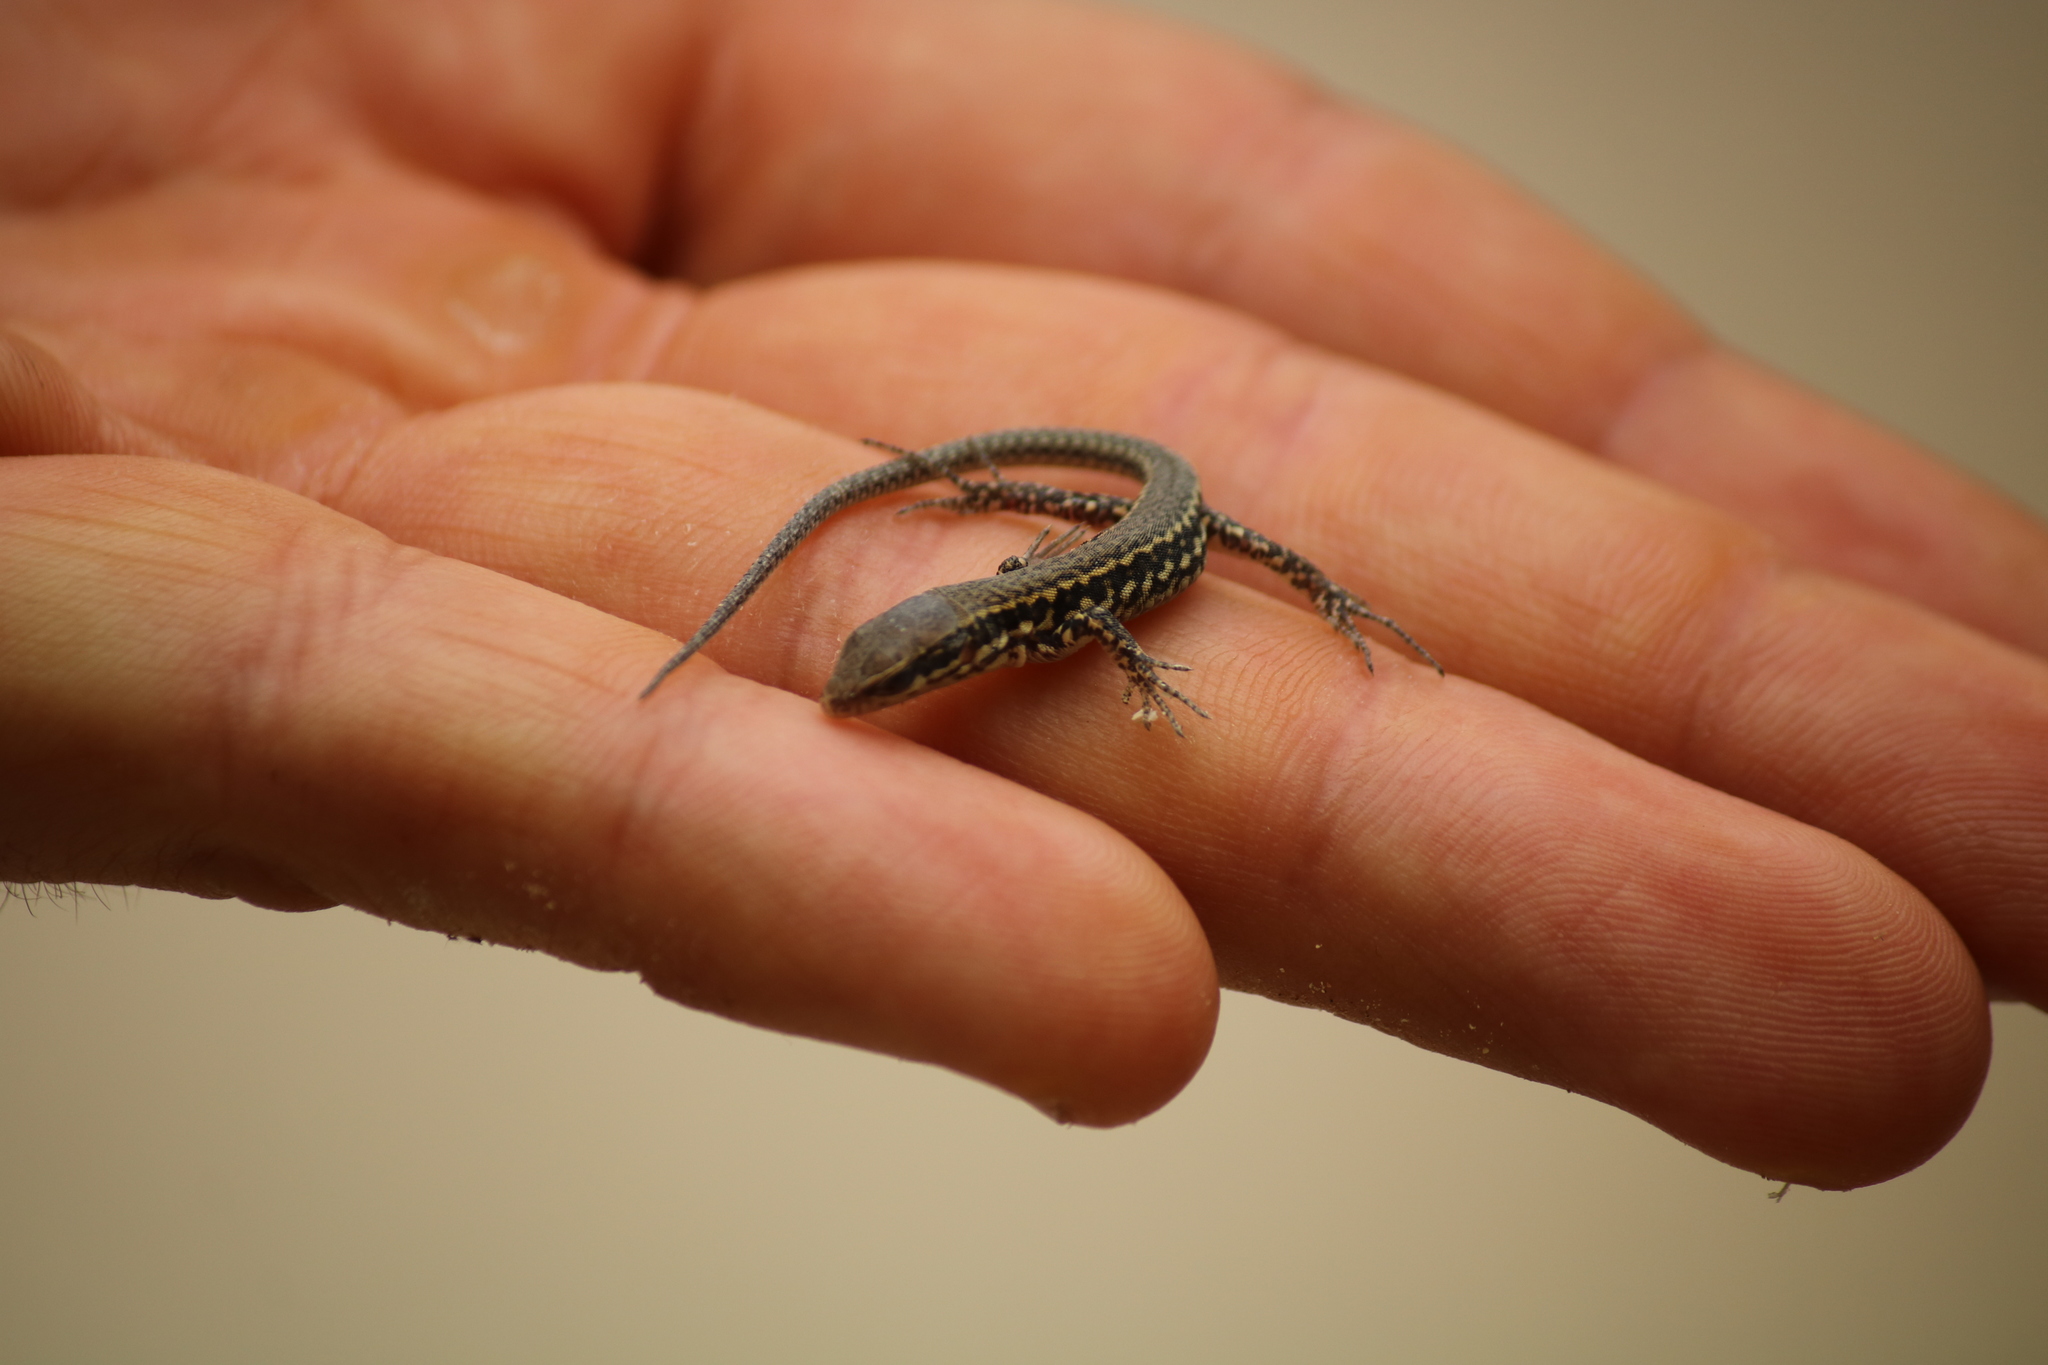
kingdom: Animalia
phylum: Chordata
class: Squamata
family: Lacertidae
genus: Podarcis
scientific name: Podarcis muralis
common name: Common wall lizard
